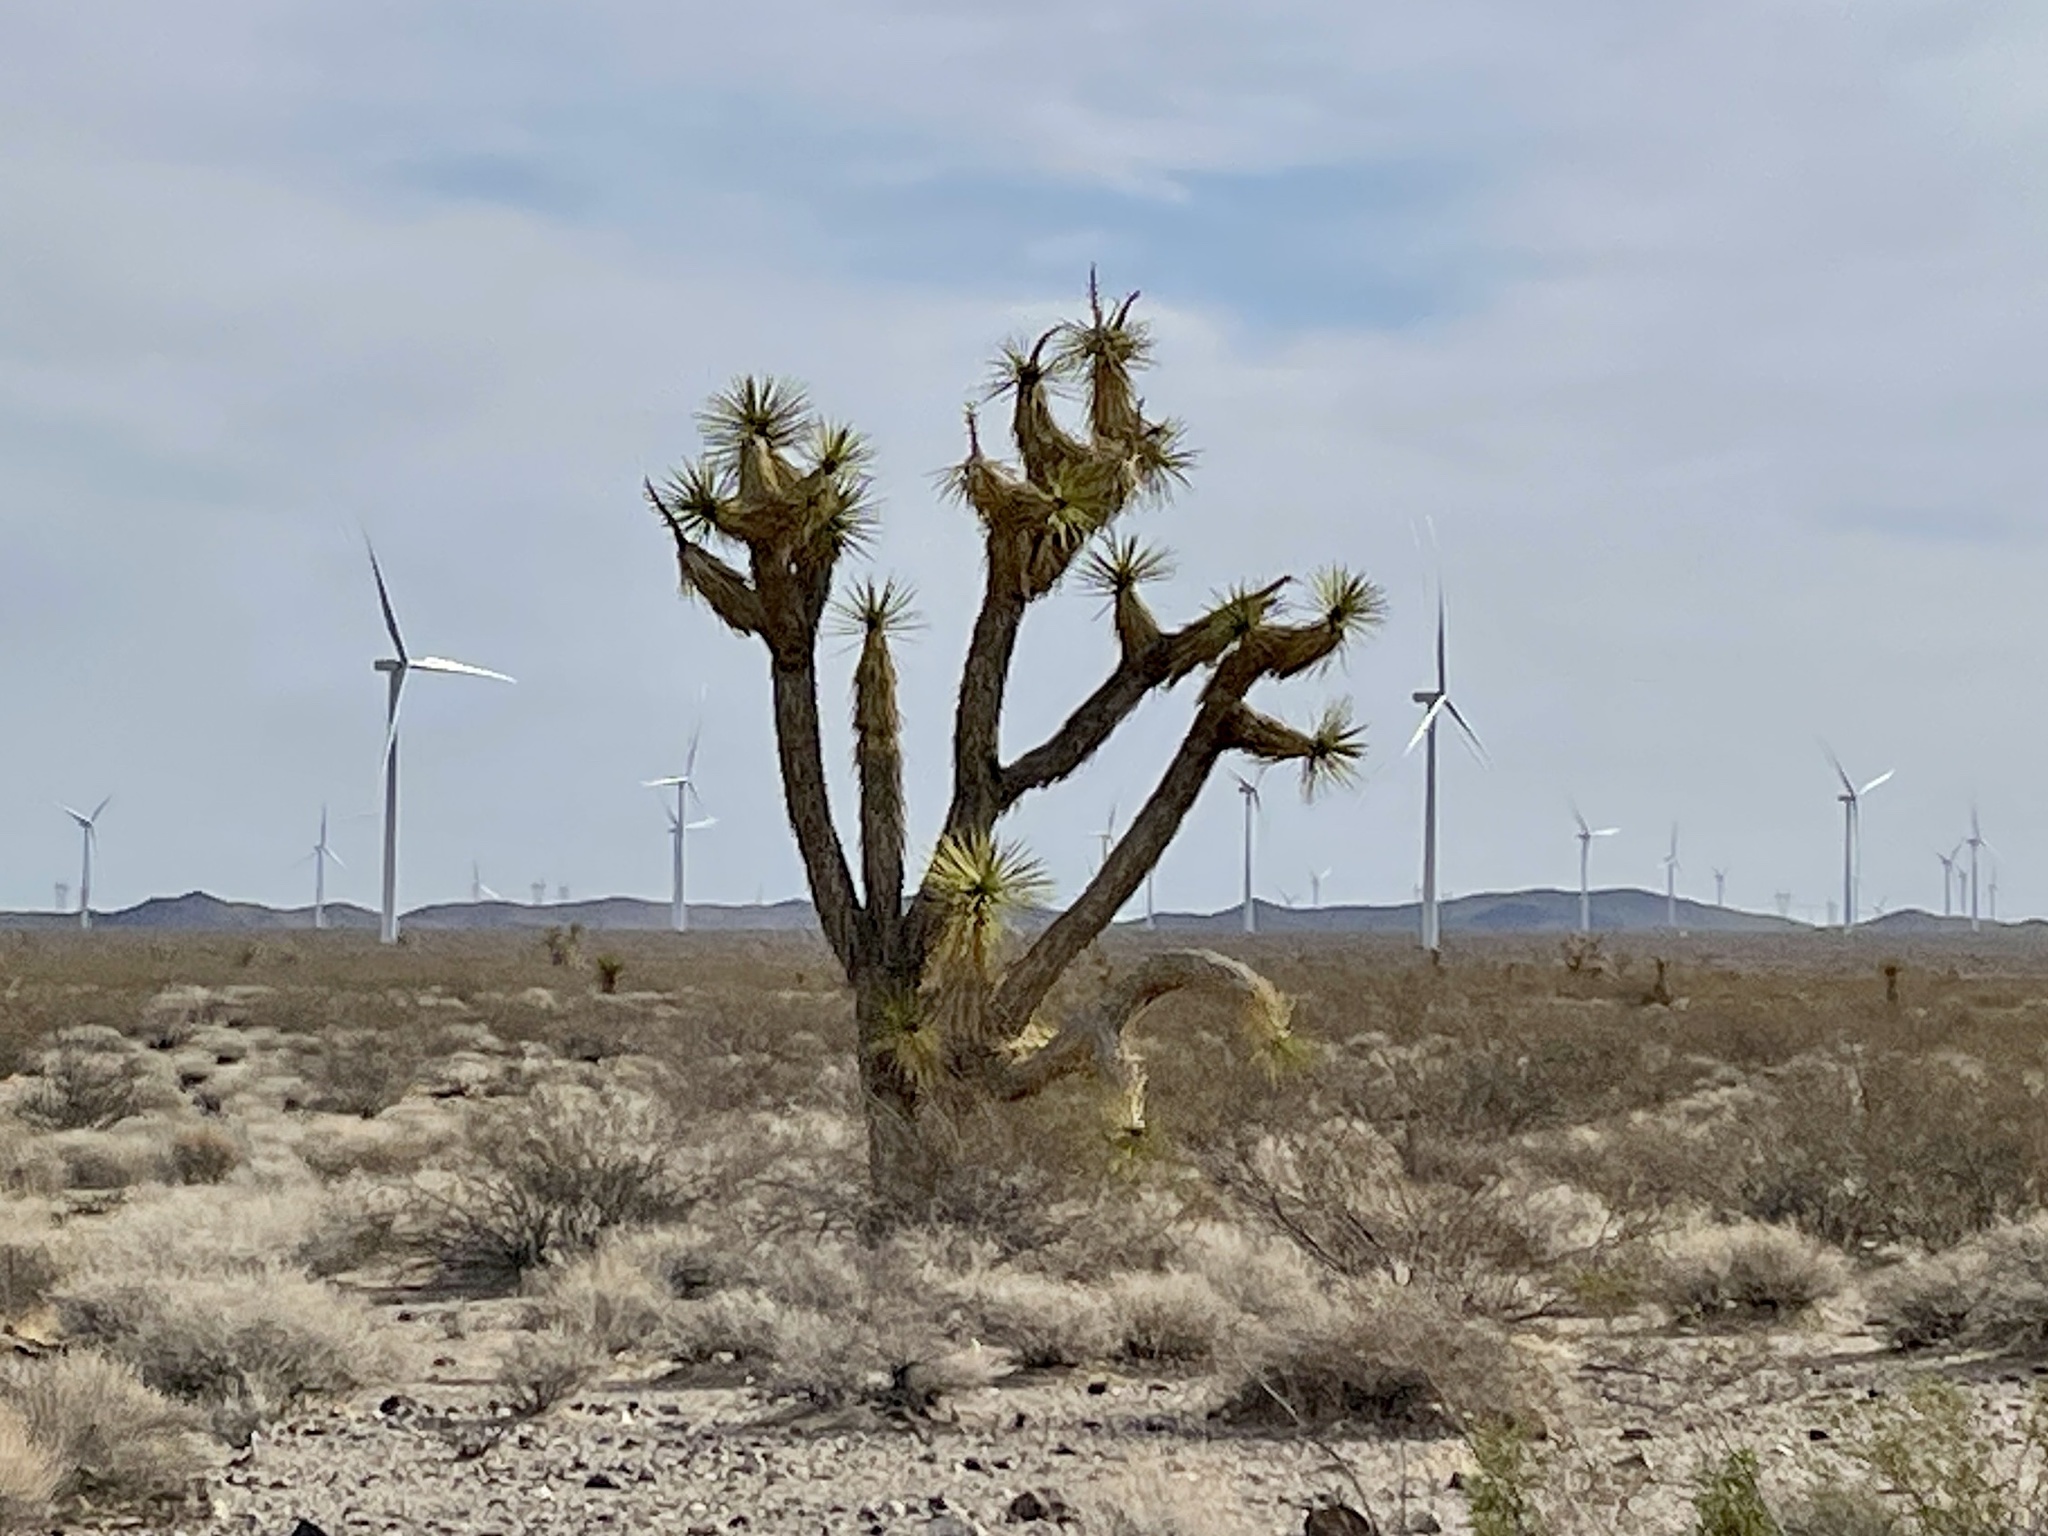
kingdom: Plantae
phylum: Tracheophyta
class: Liliopsida
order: Asparagales
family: Asparagaceae
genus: Yucca
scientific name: Yucca brevifolia
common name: Joshua tree
